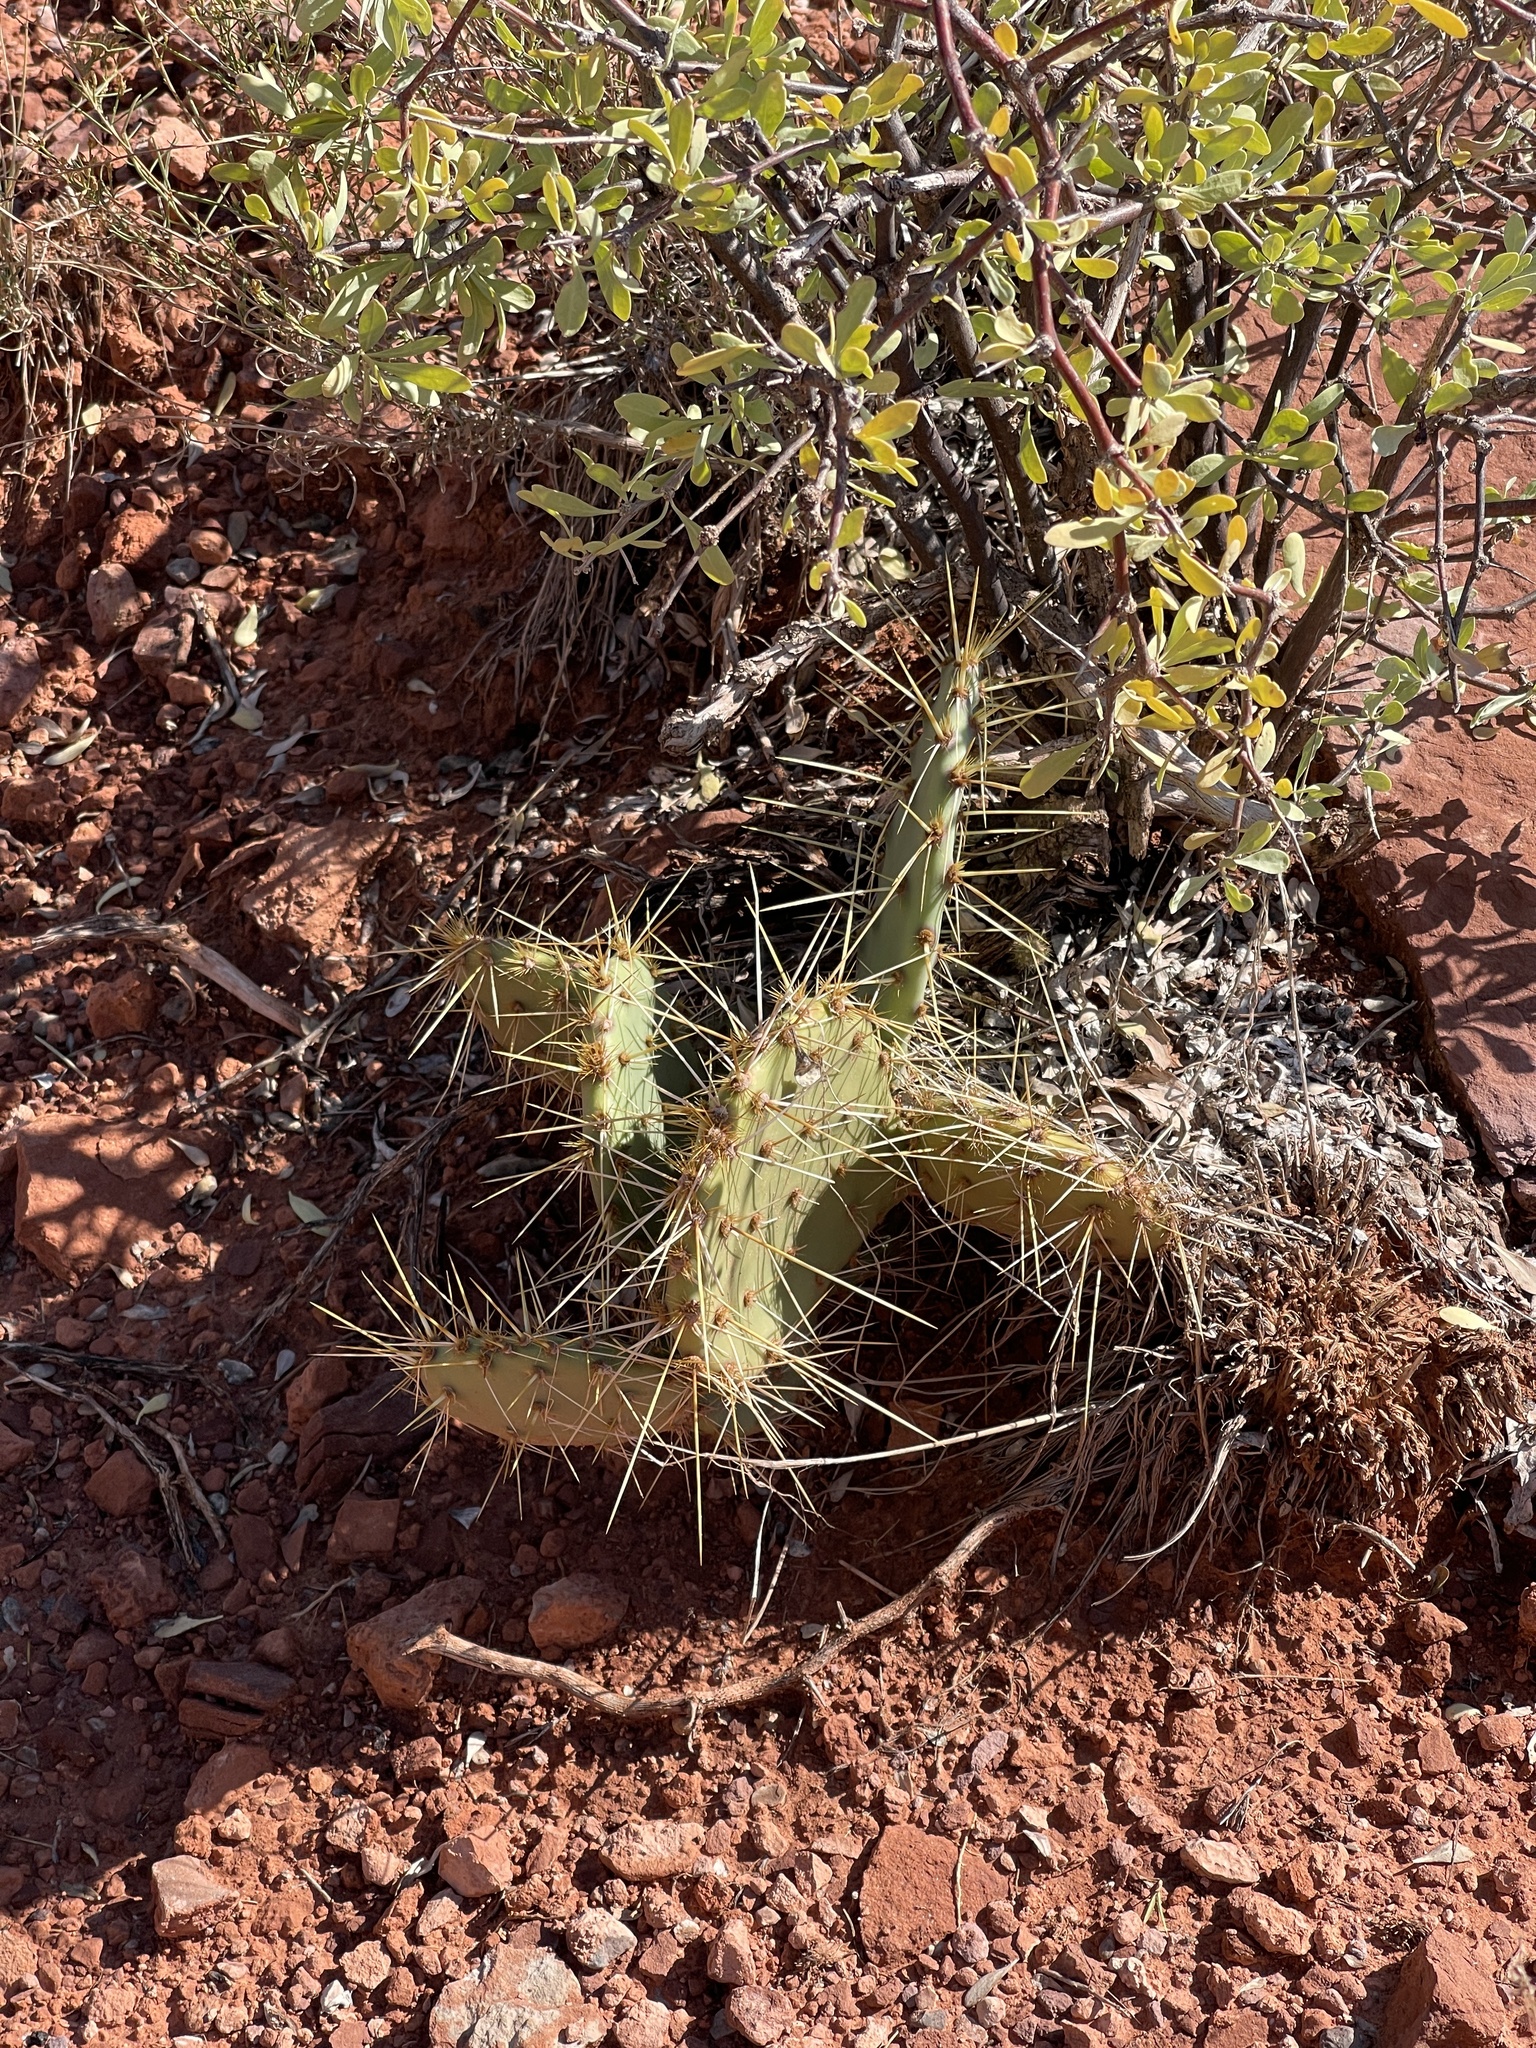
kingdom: Plantae
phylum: Tracheophyta
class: Magnoliopsida
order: Caryophyllales
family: Cactaceae
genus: Opuntia
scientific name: Opuntia macrorhiza
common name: Grassland pricklypear
